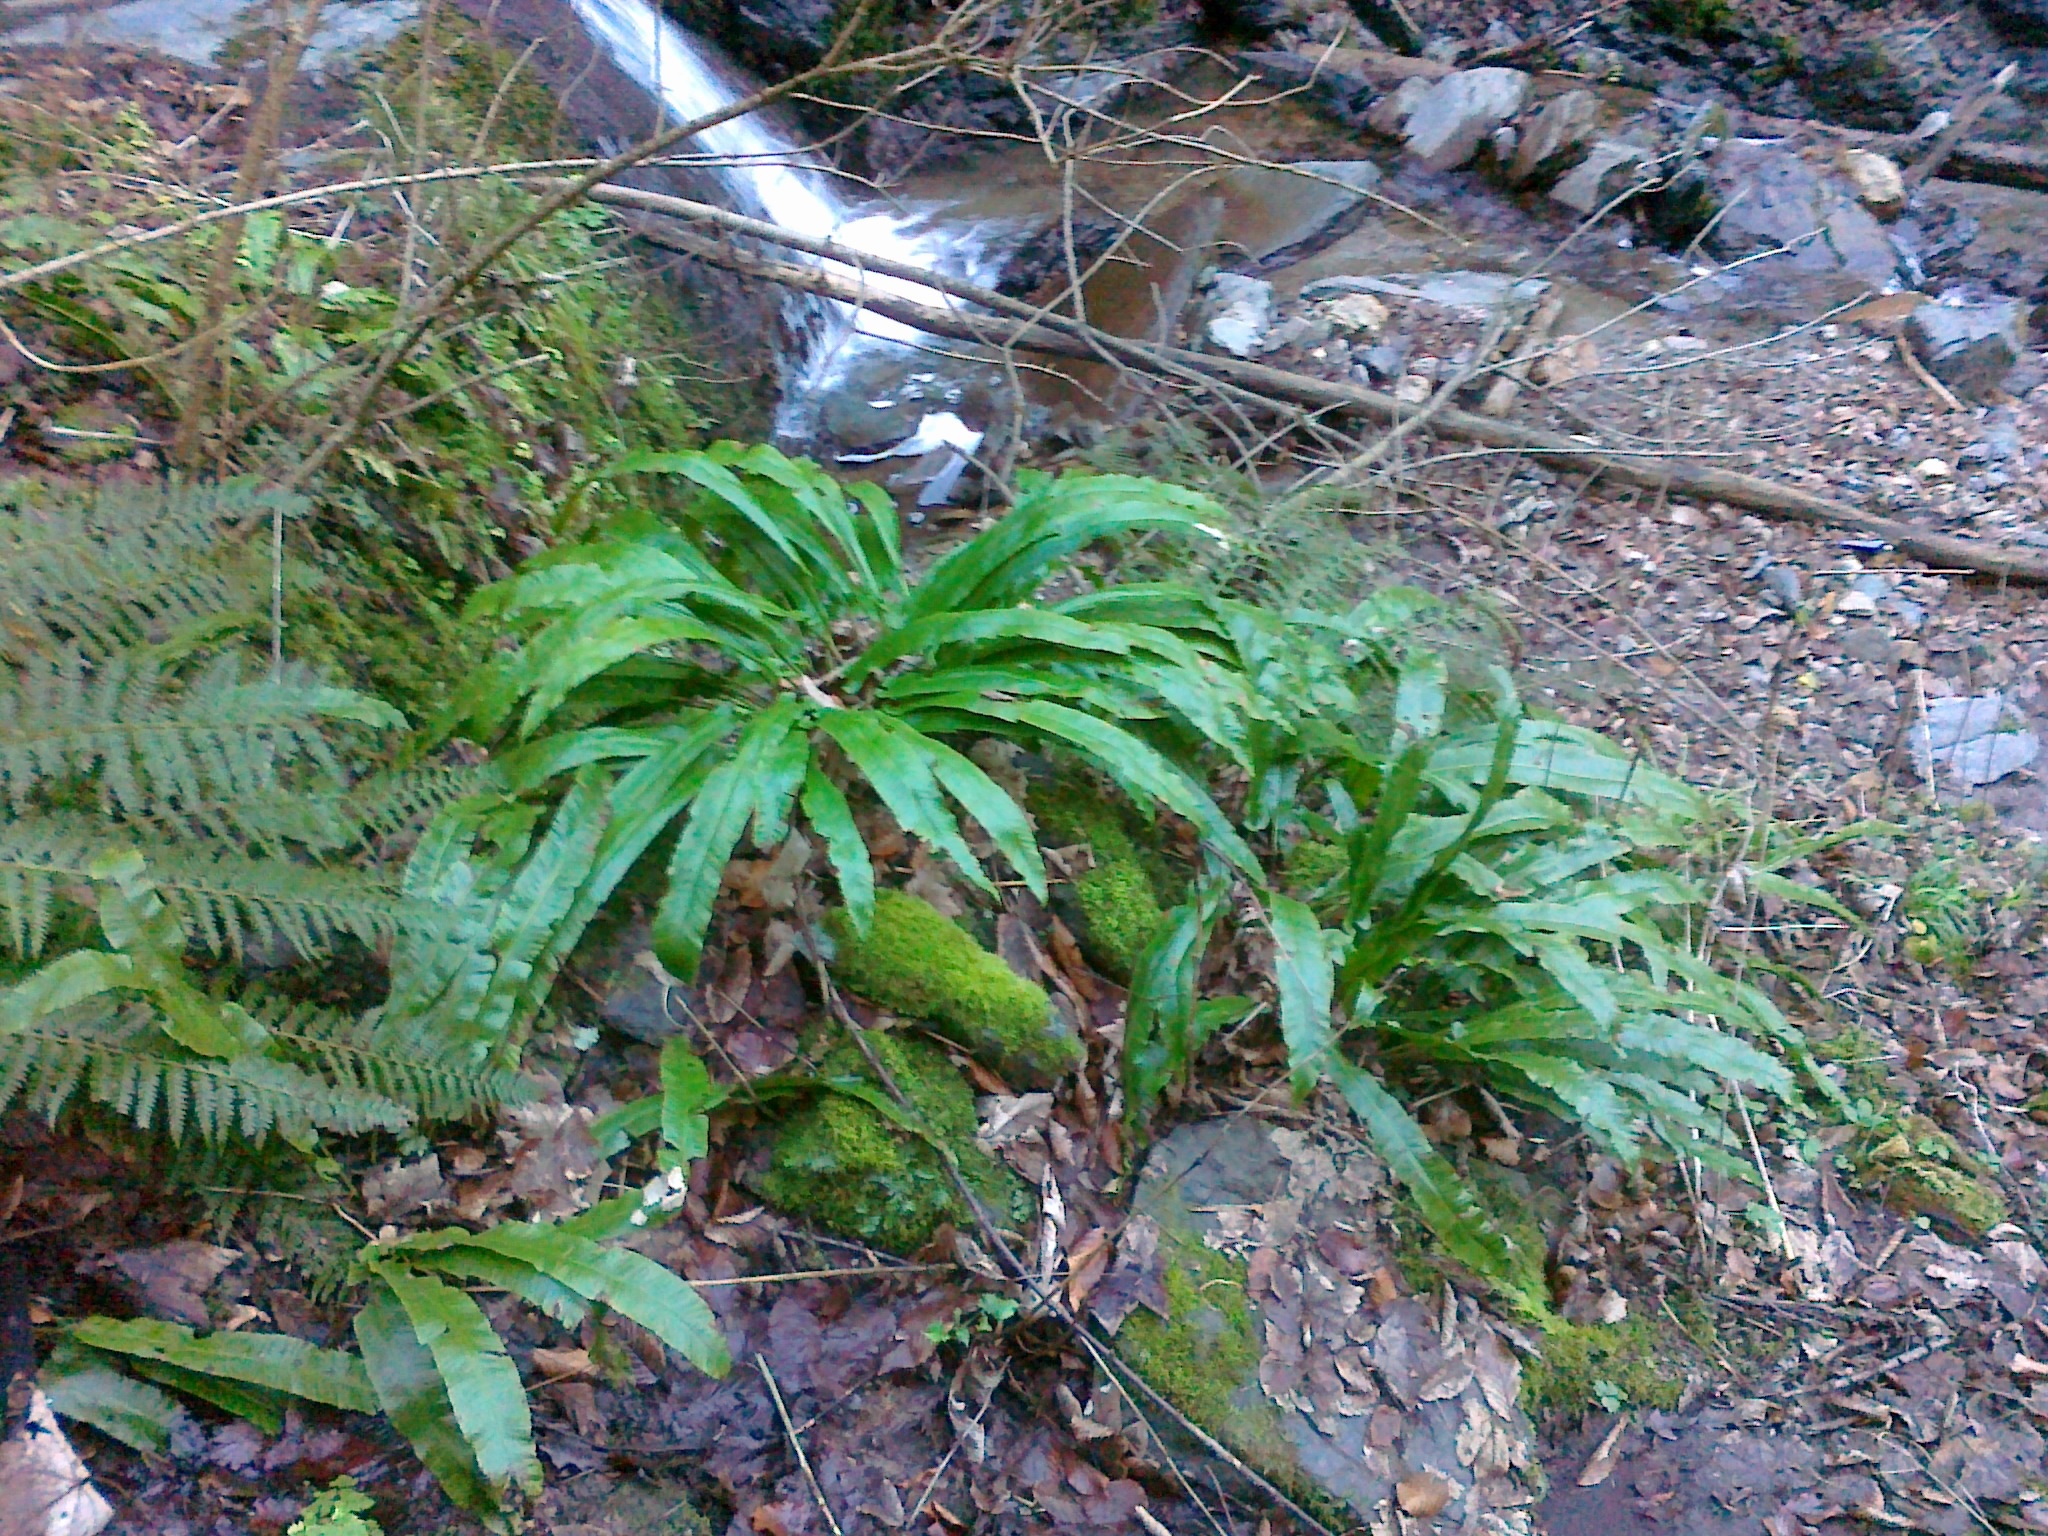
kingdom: Plantae
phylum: Tracheophyta
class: Polypodiopsida
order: Polypodiales
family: Aspleniaceae
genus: Asplenium
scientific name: Asplenium scolopendrium
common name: Hart's-tongue fern
